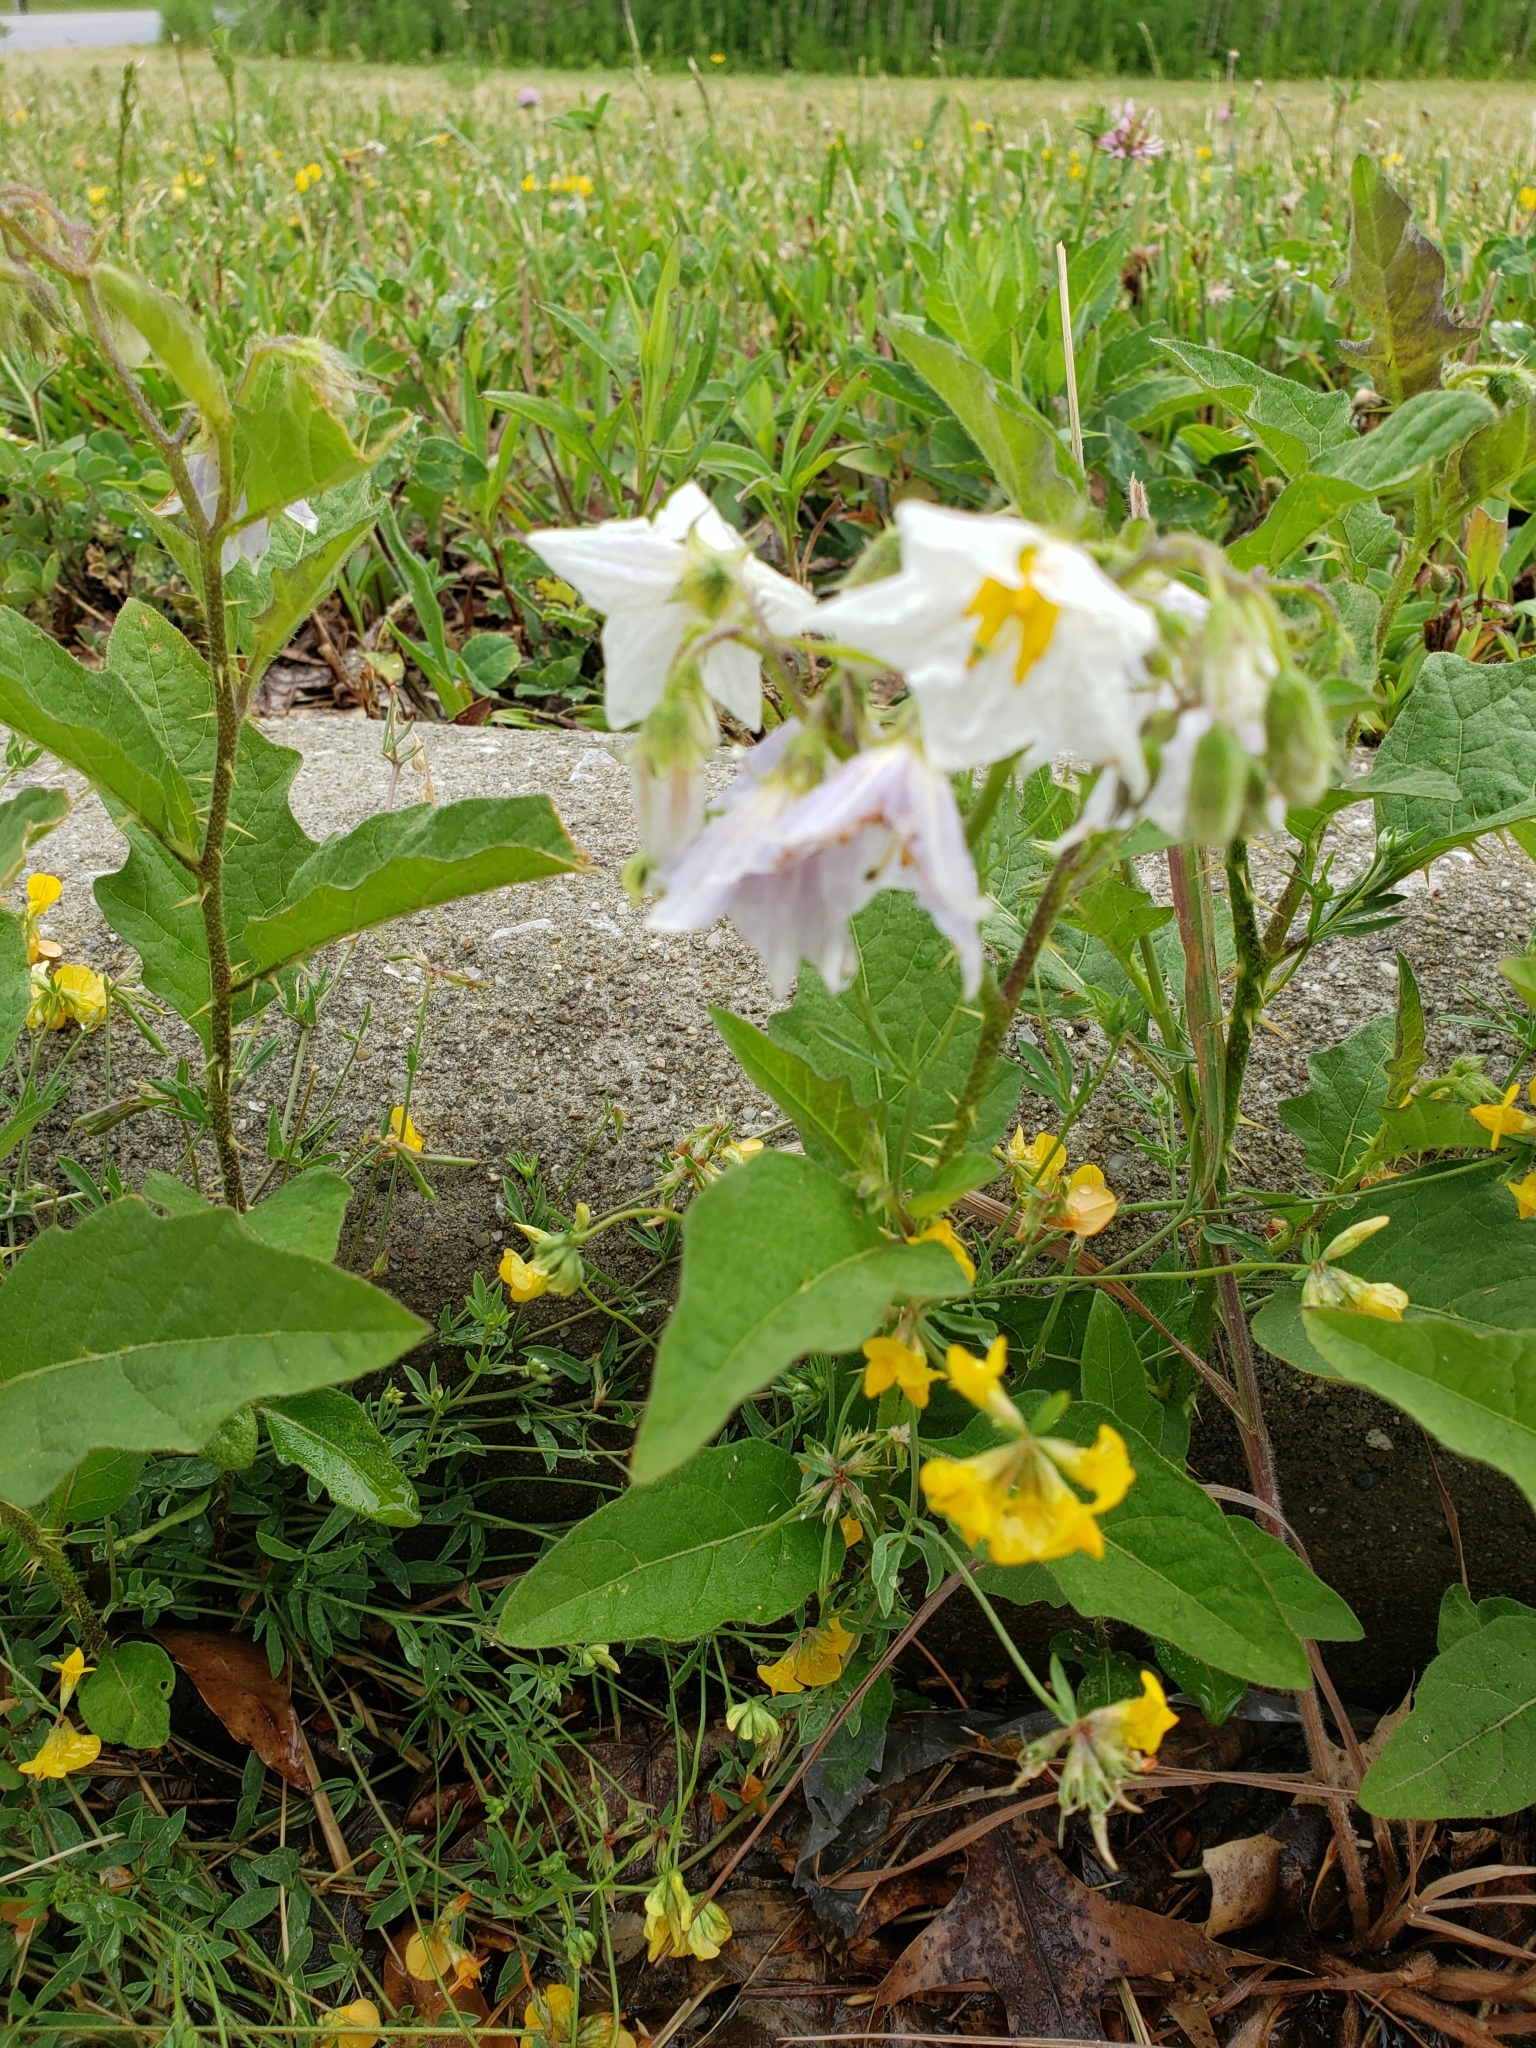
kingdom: Plantae
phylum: Tracheophyta
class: Magnoliopsida
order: Solanales
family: Solanaceae
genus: Solanum
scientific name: Solanum carolinense
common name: Horse-nettle
